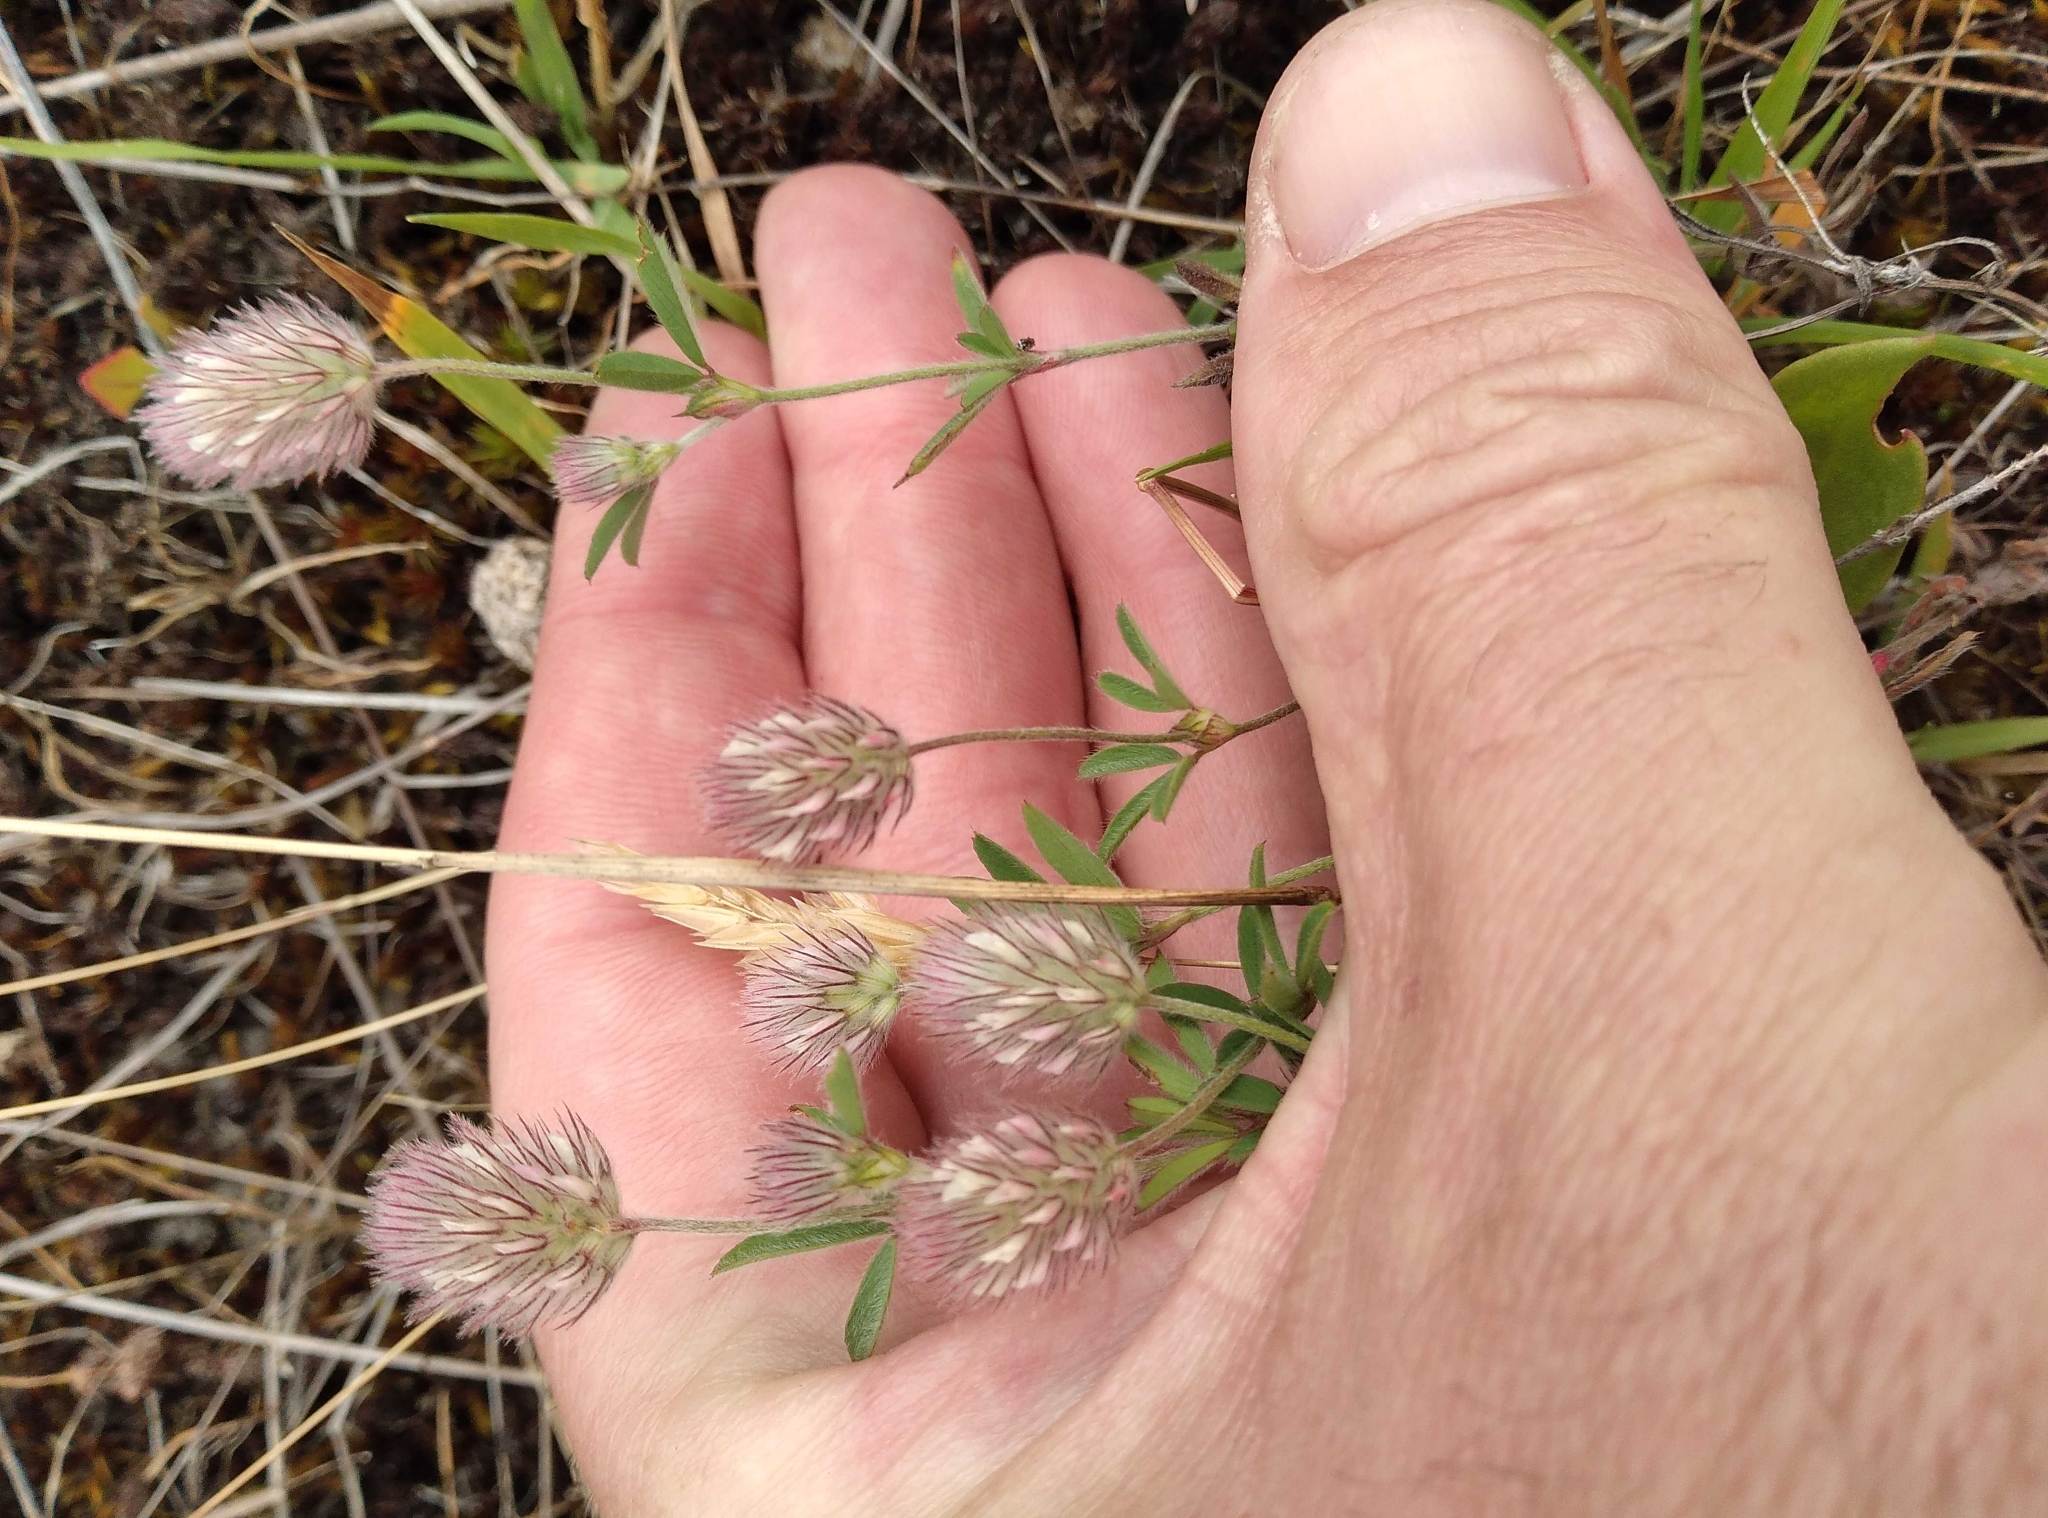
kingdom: Plantae
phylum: Tracheophyta
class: Magnoliopsida
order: Fabales
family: Fabaceae
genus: Trifolium
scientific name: Trifolium arvense
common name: Hare's-foot clover
